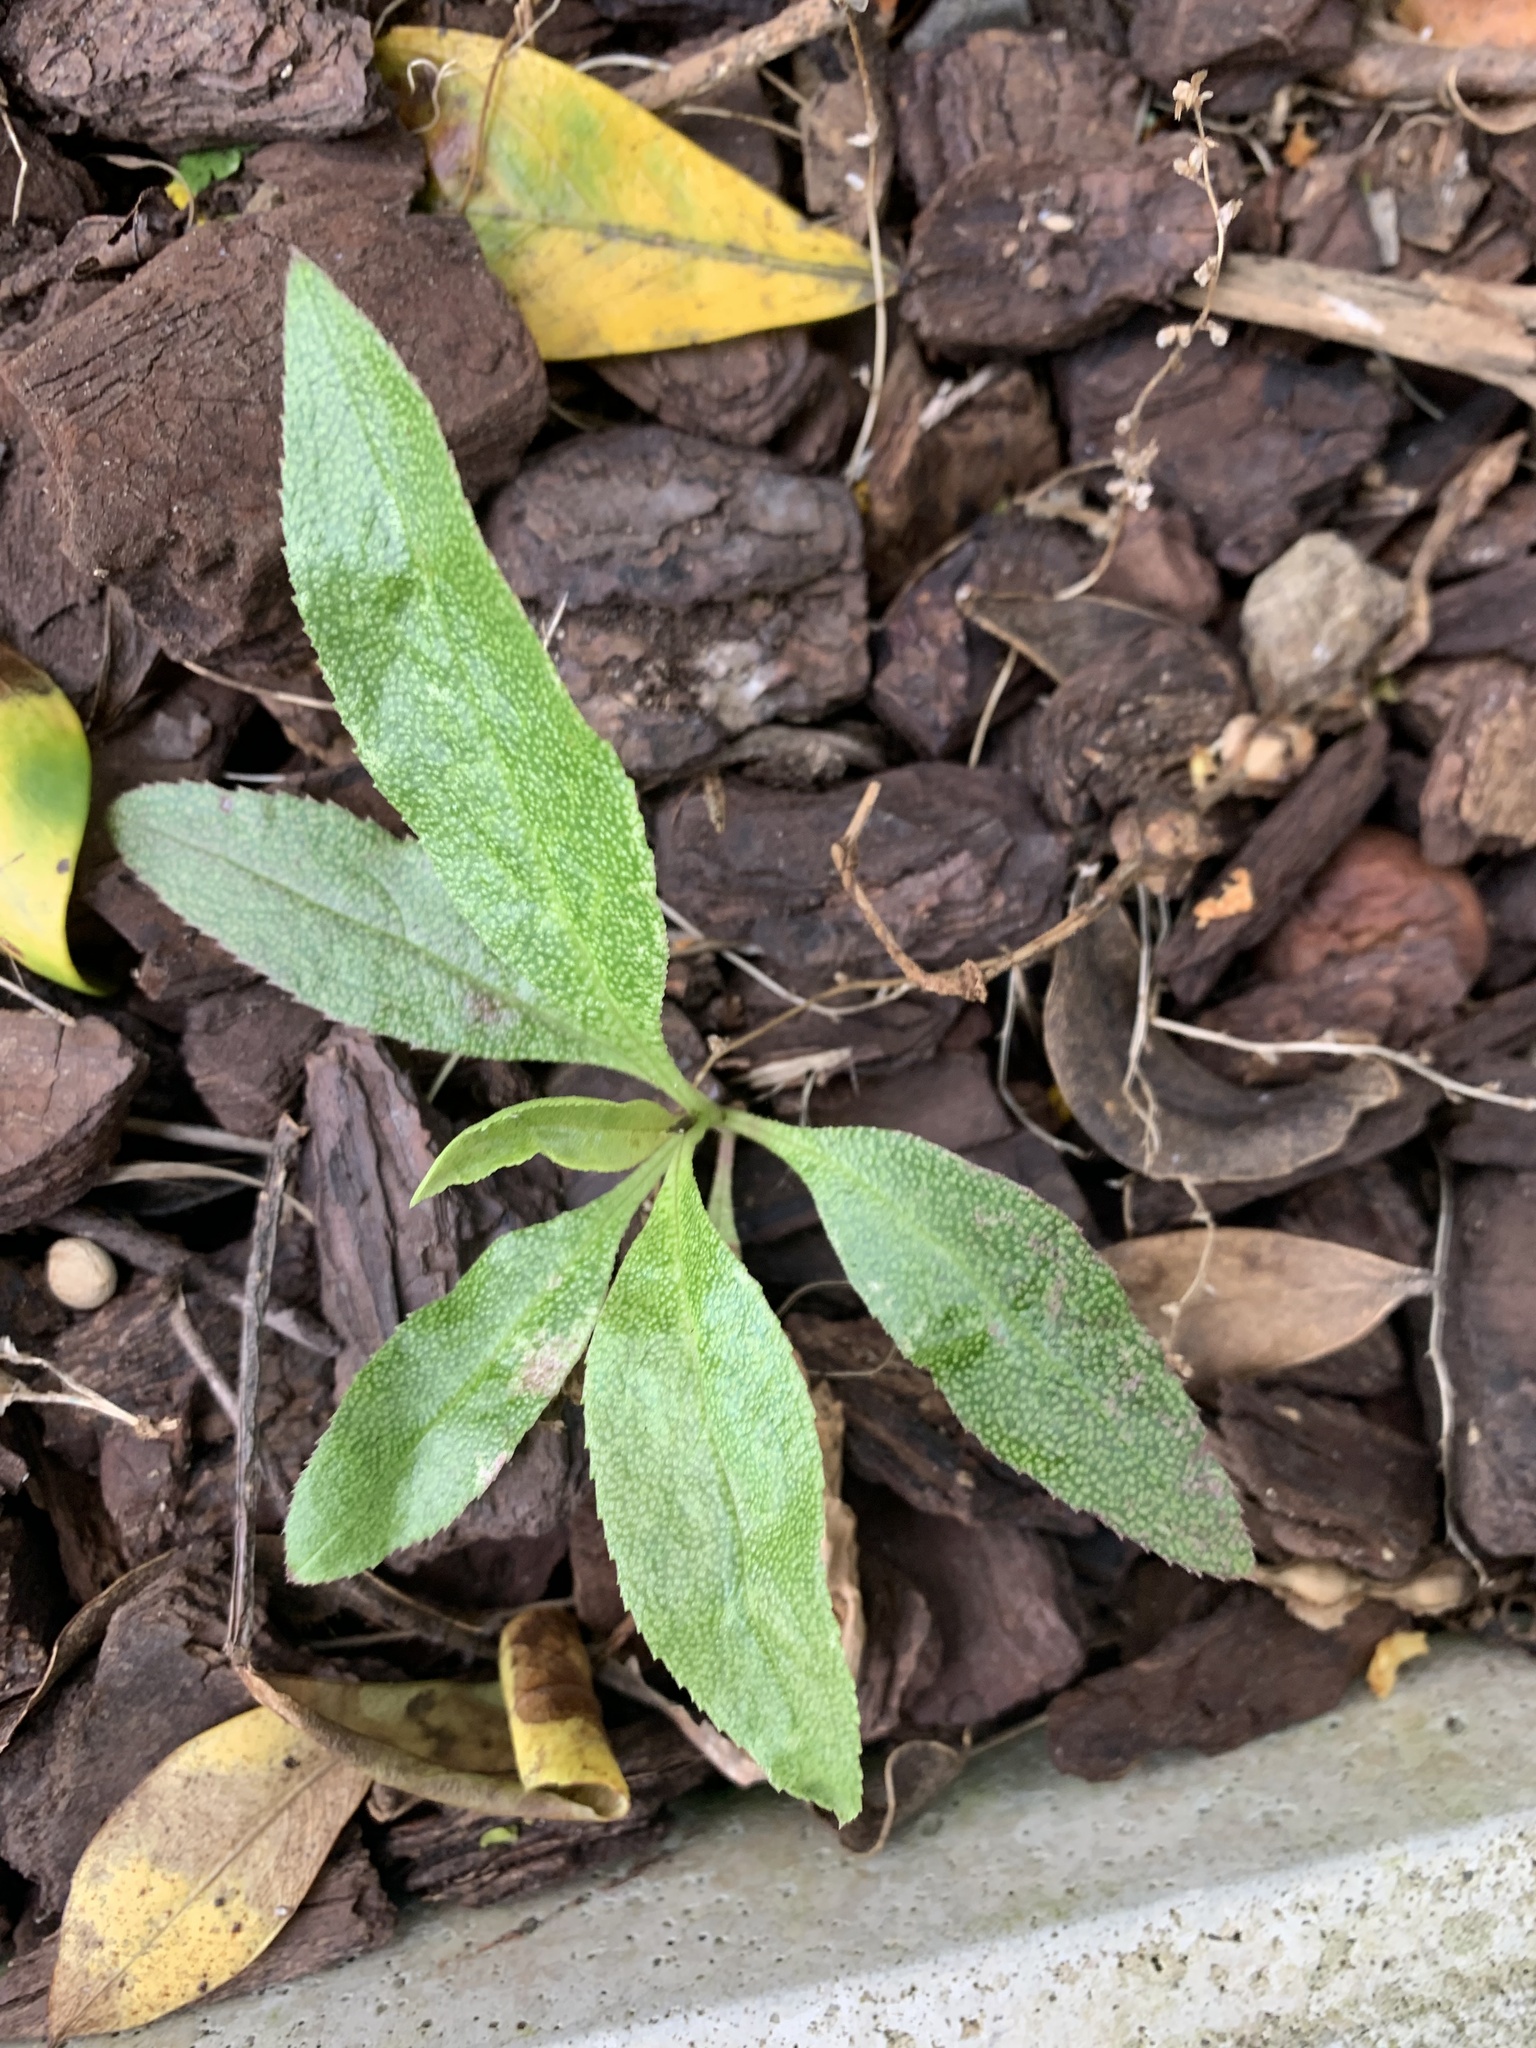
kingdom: Plantae
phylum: Tracheophyta
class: Magnoliopsida
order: Lamiales
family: Scrophulariaceae
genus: Myoporum
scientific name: Myoporum laetum
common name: Ngaio tree
